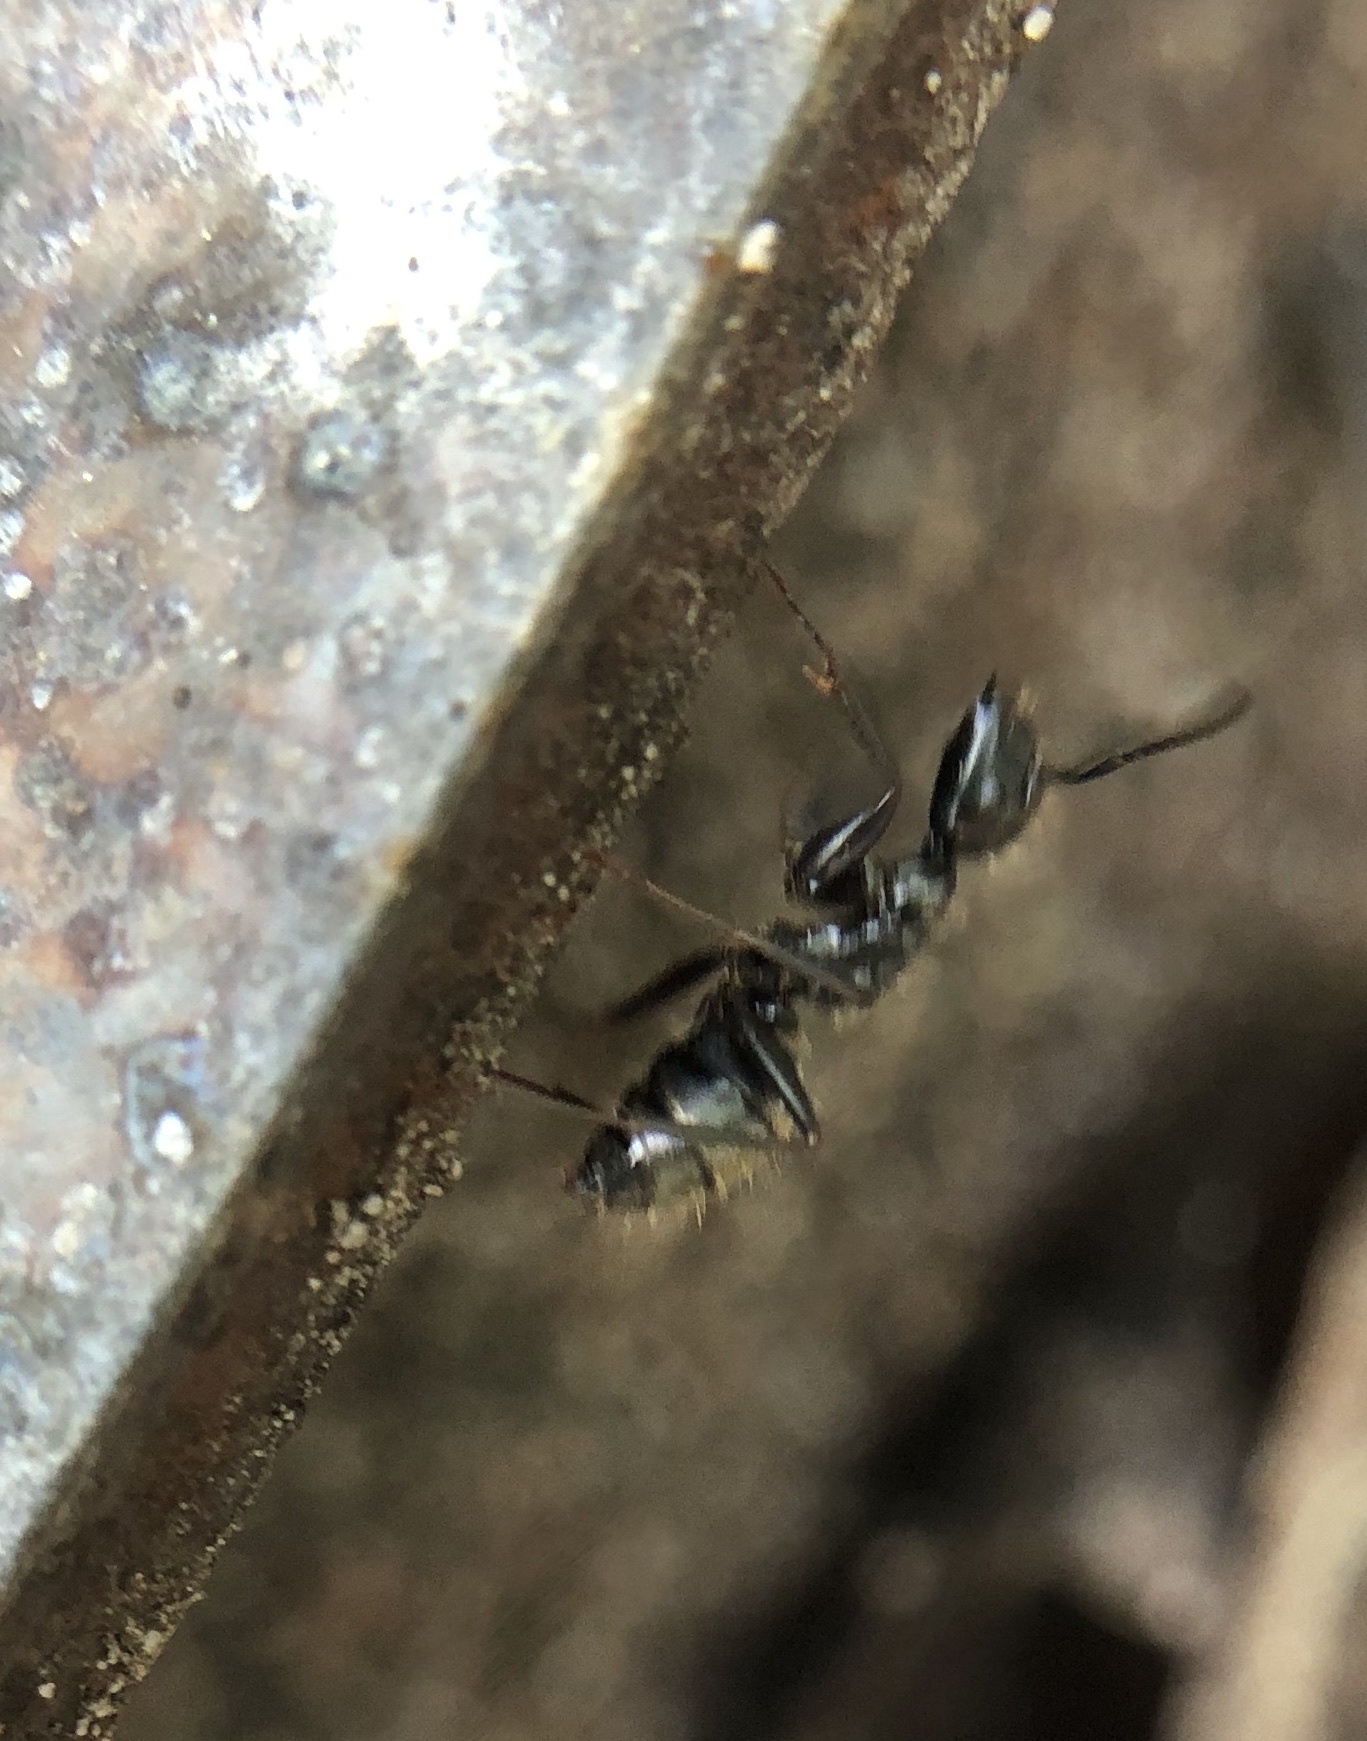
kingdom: Animalia
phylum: Arthropoda
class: Insecta
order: Hymenoptera
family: Formicidae
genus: Camponotus
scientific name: Camponotus pennsylvanicus
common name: Black carpenter ant
